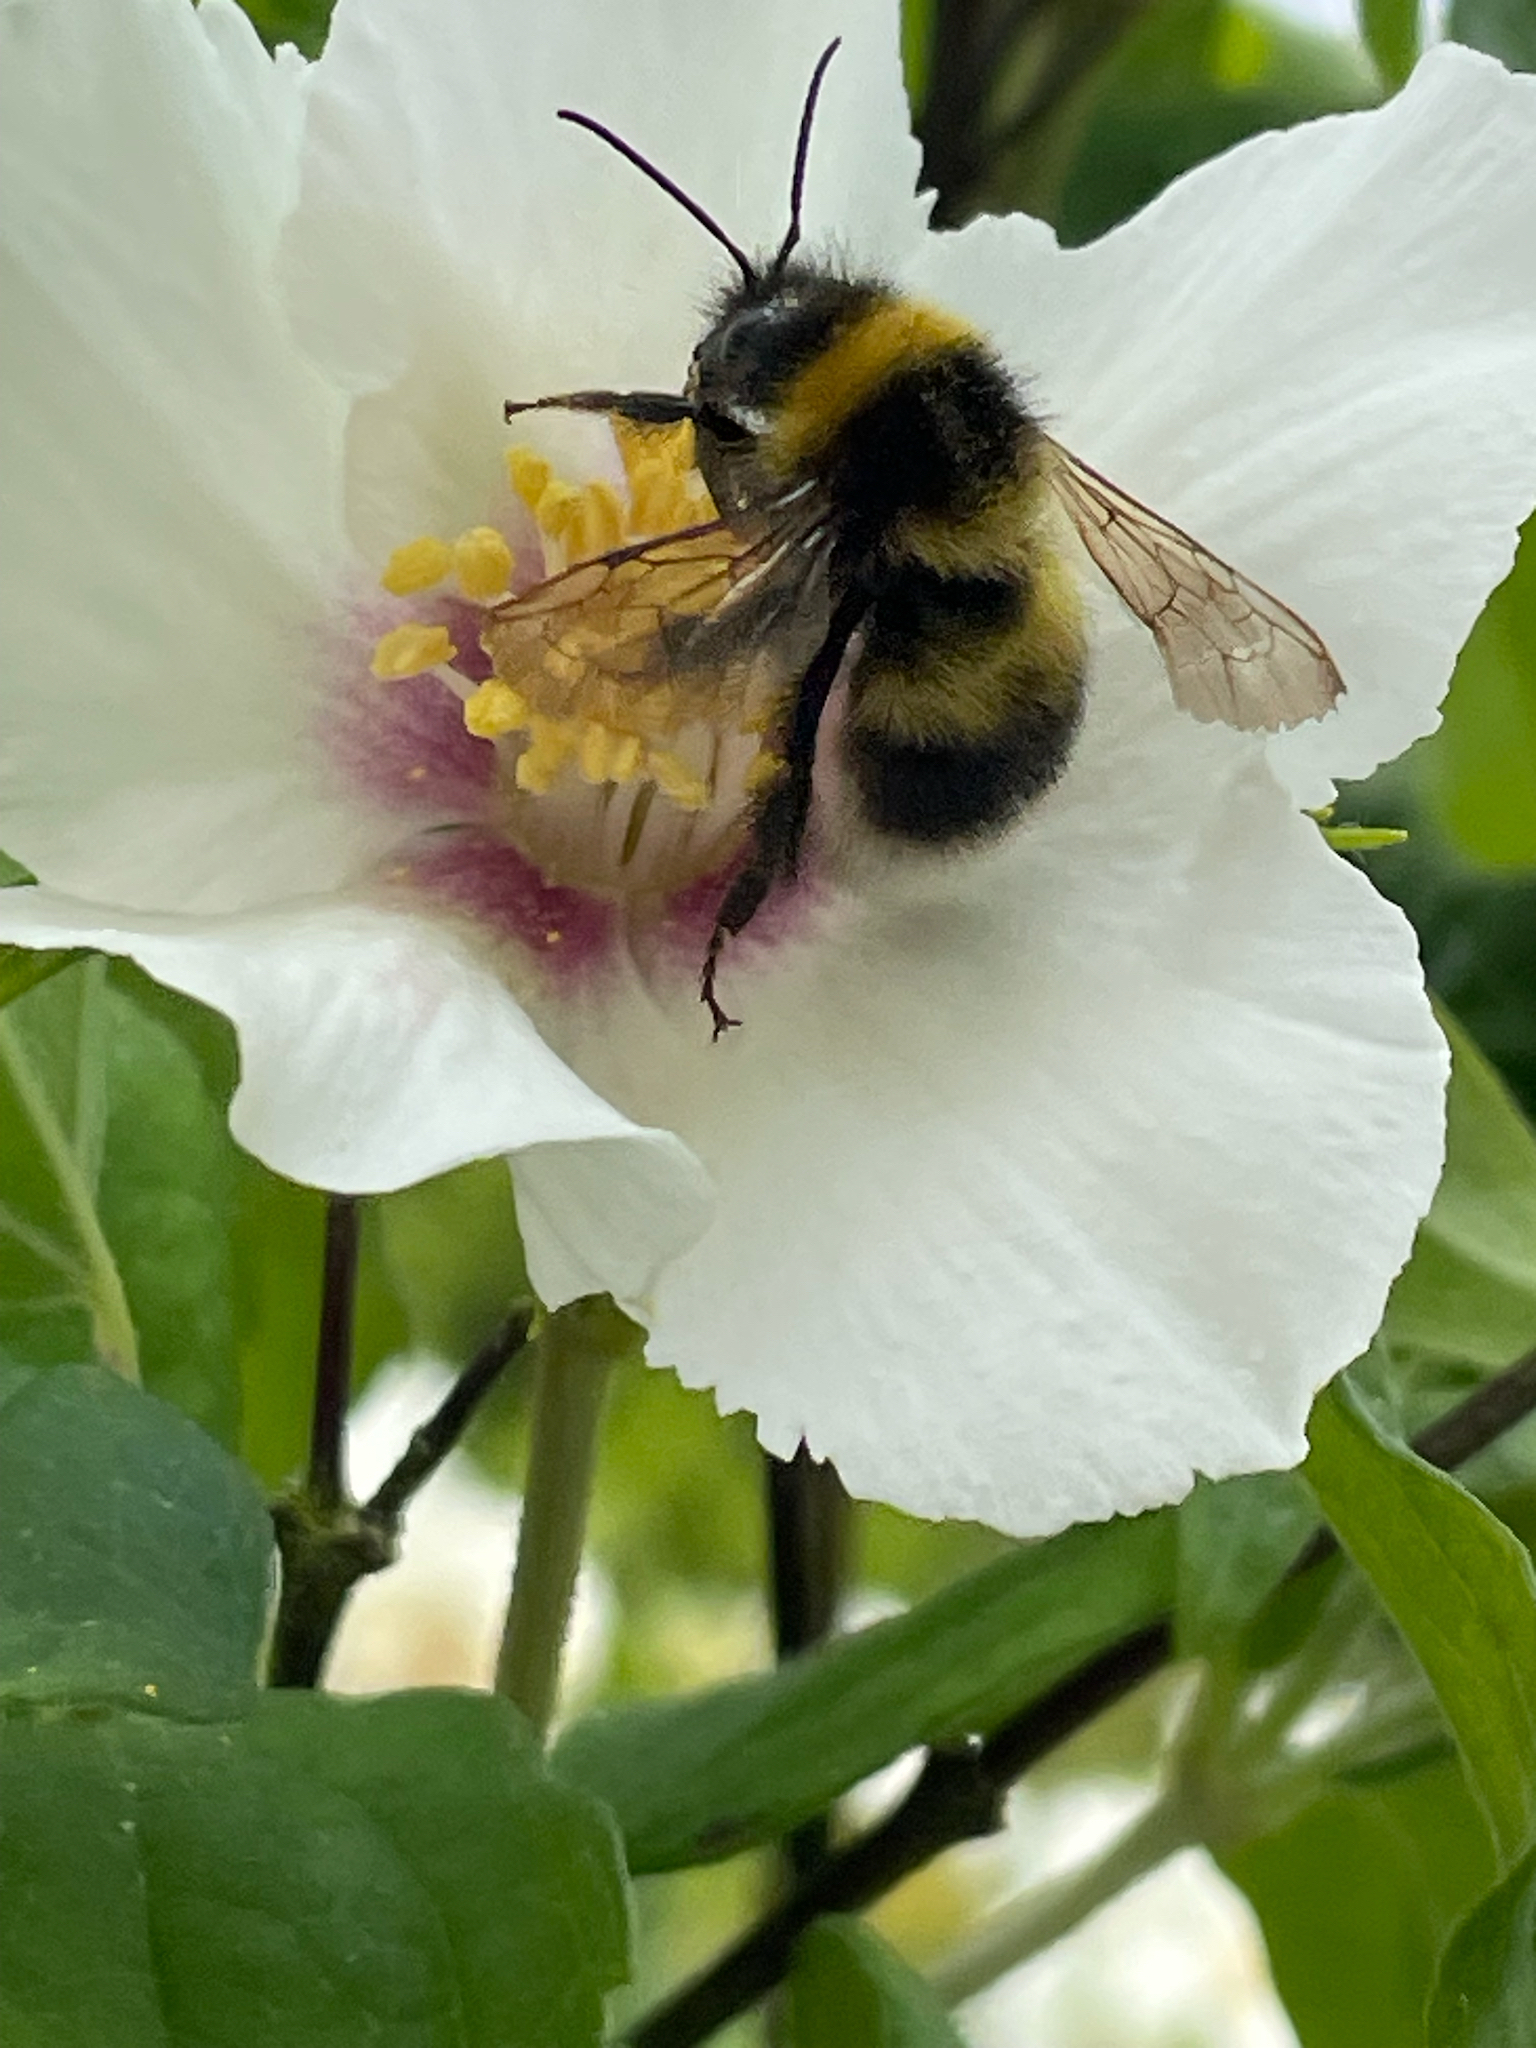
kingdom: Animalia
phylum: Arthropoda
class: Insecta
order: Hymenoptera
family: Apidae
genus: Bombus
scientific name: Bombus hortorum
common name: Garden bumblebee
